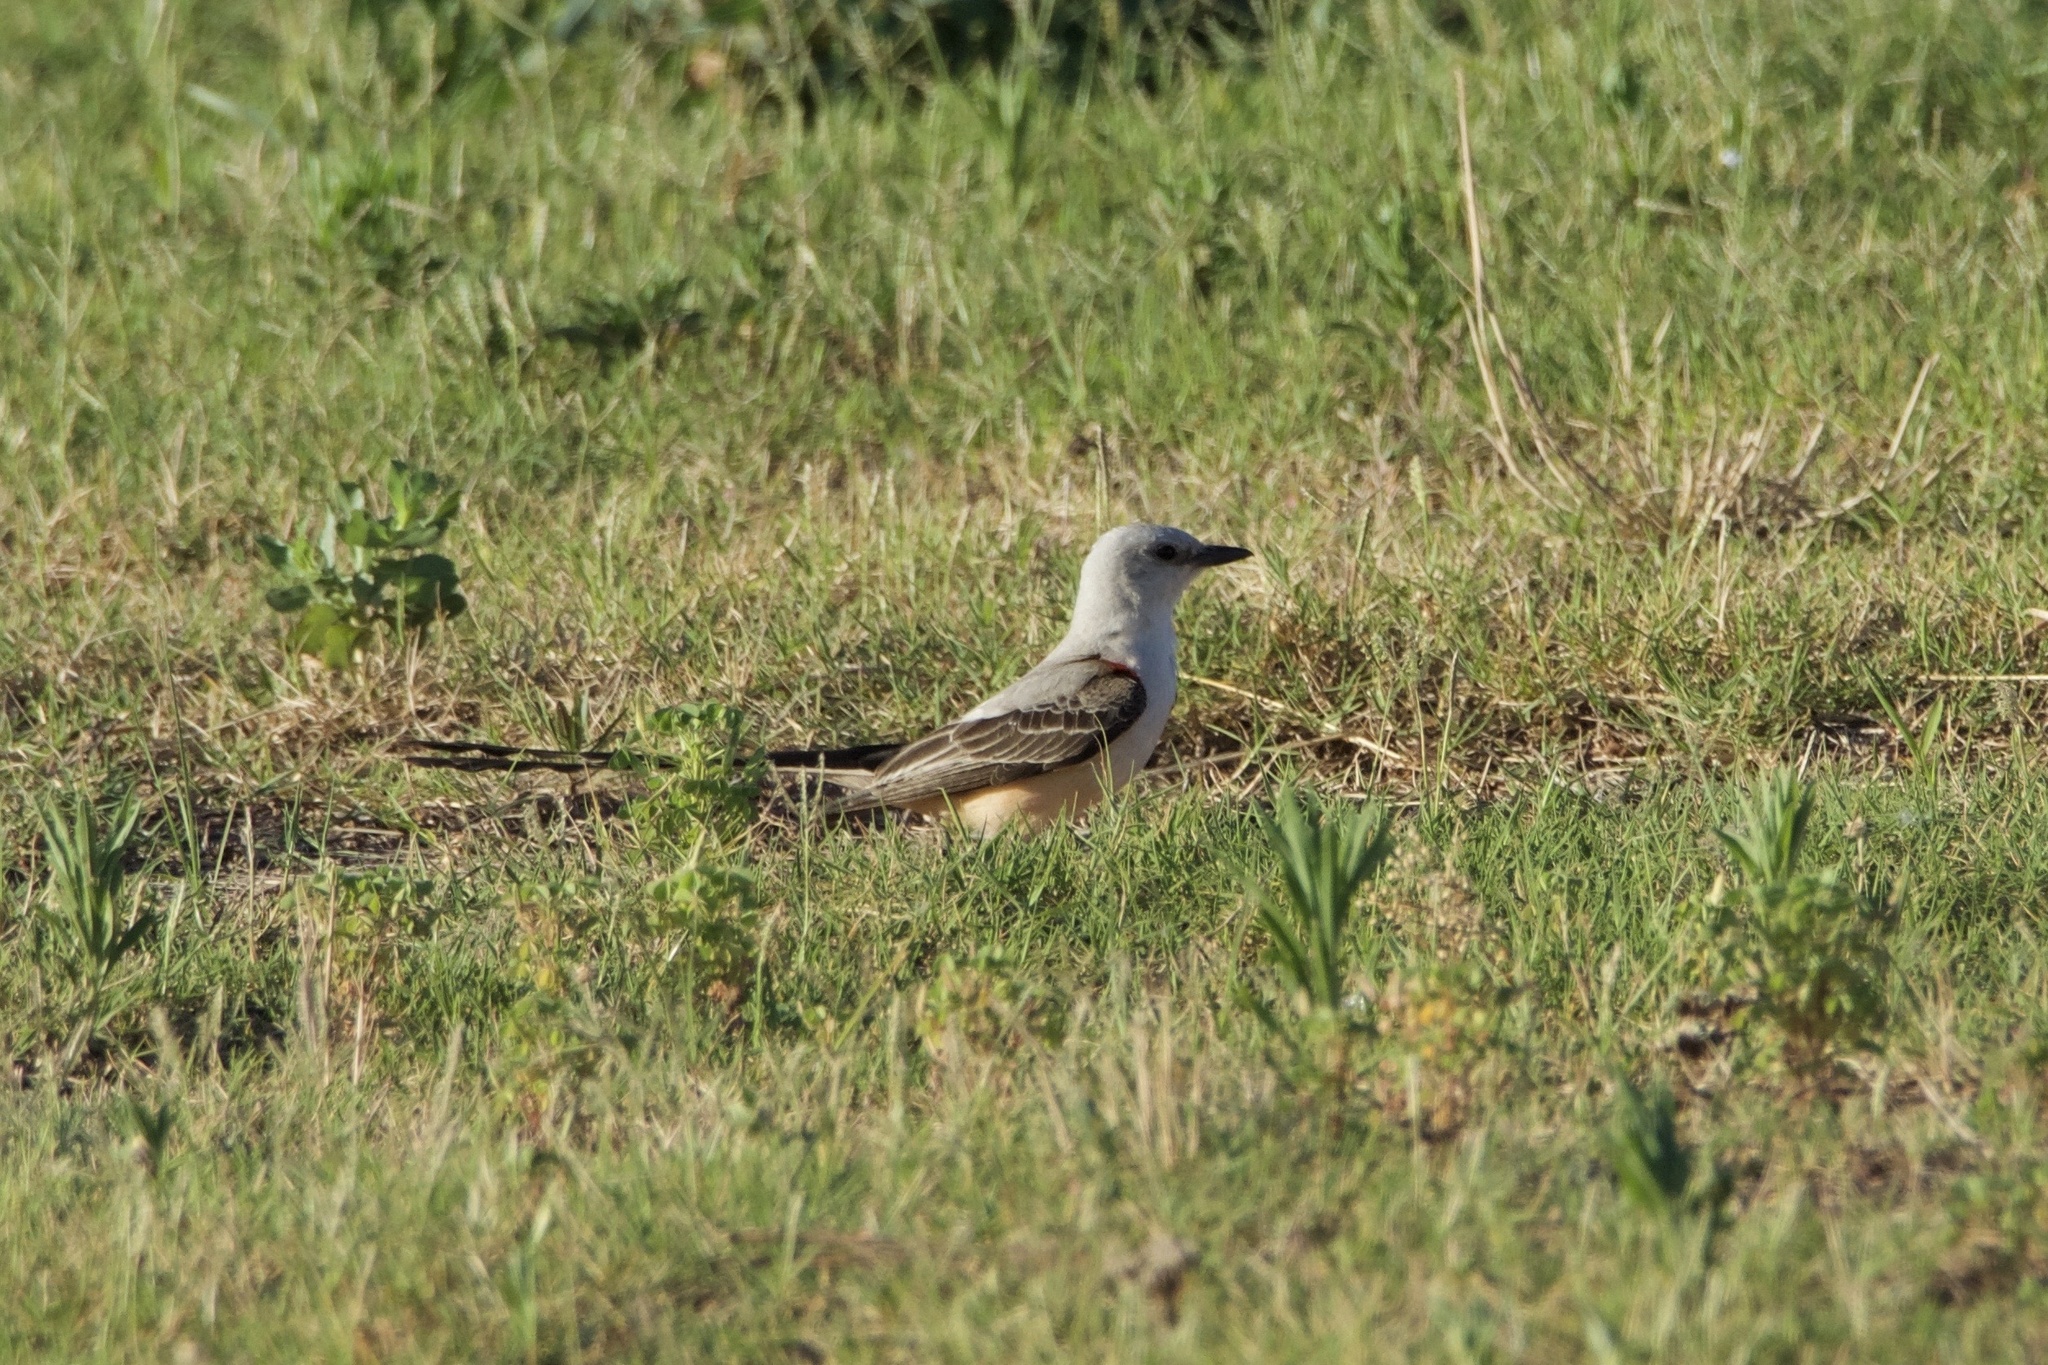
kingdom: Animalia
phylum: Chordata
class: Aves
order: Passeriformes
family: Tyrannidae
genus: Tyrannus
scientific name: Tyrannus forficatus
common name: Scissor-tailed flycatcher
